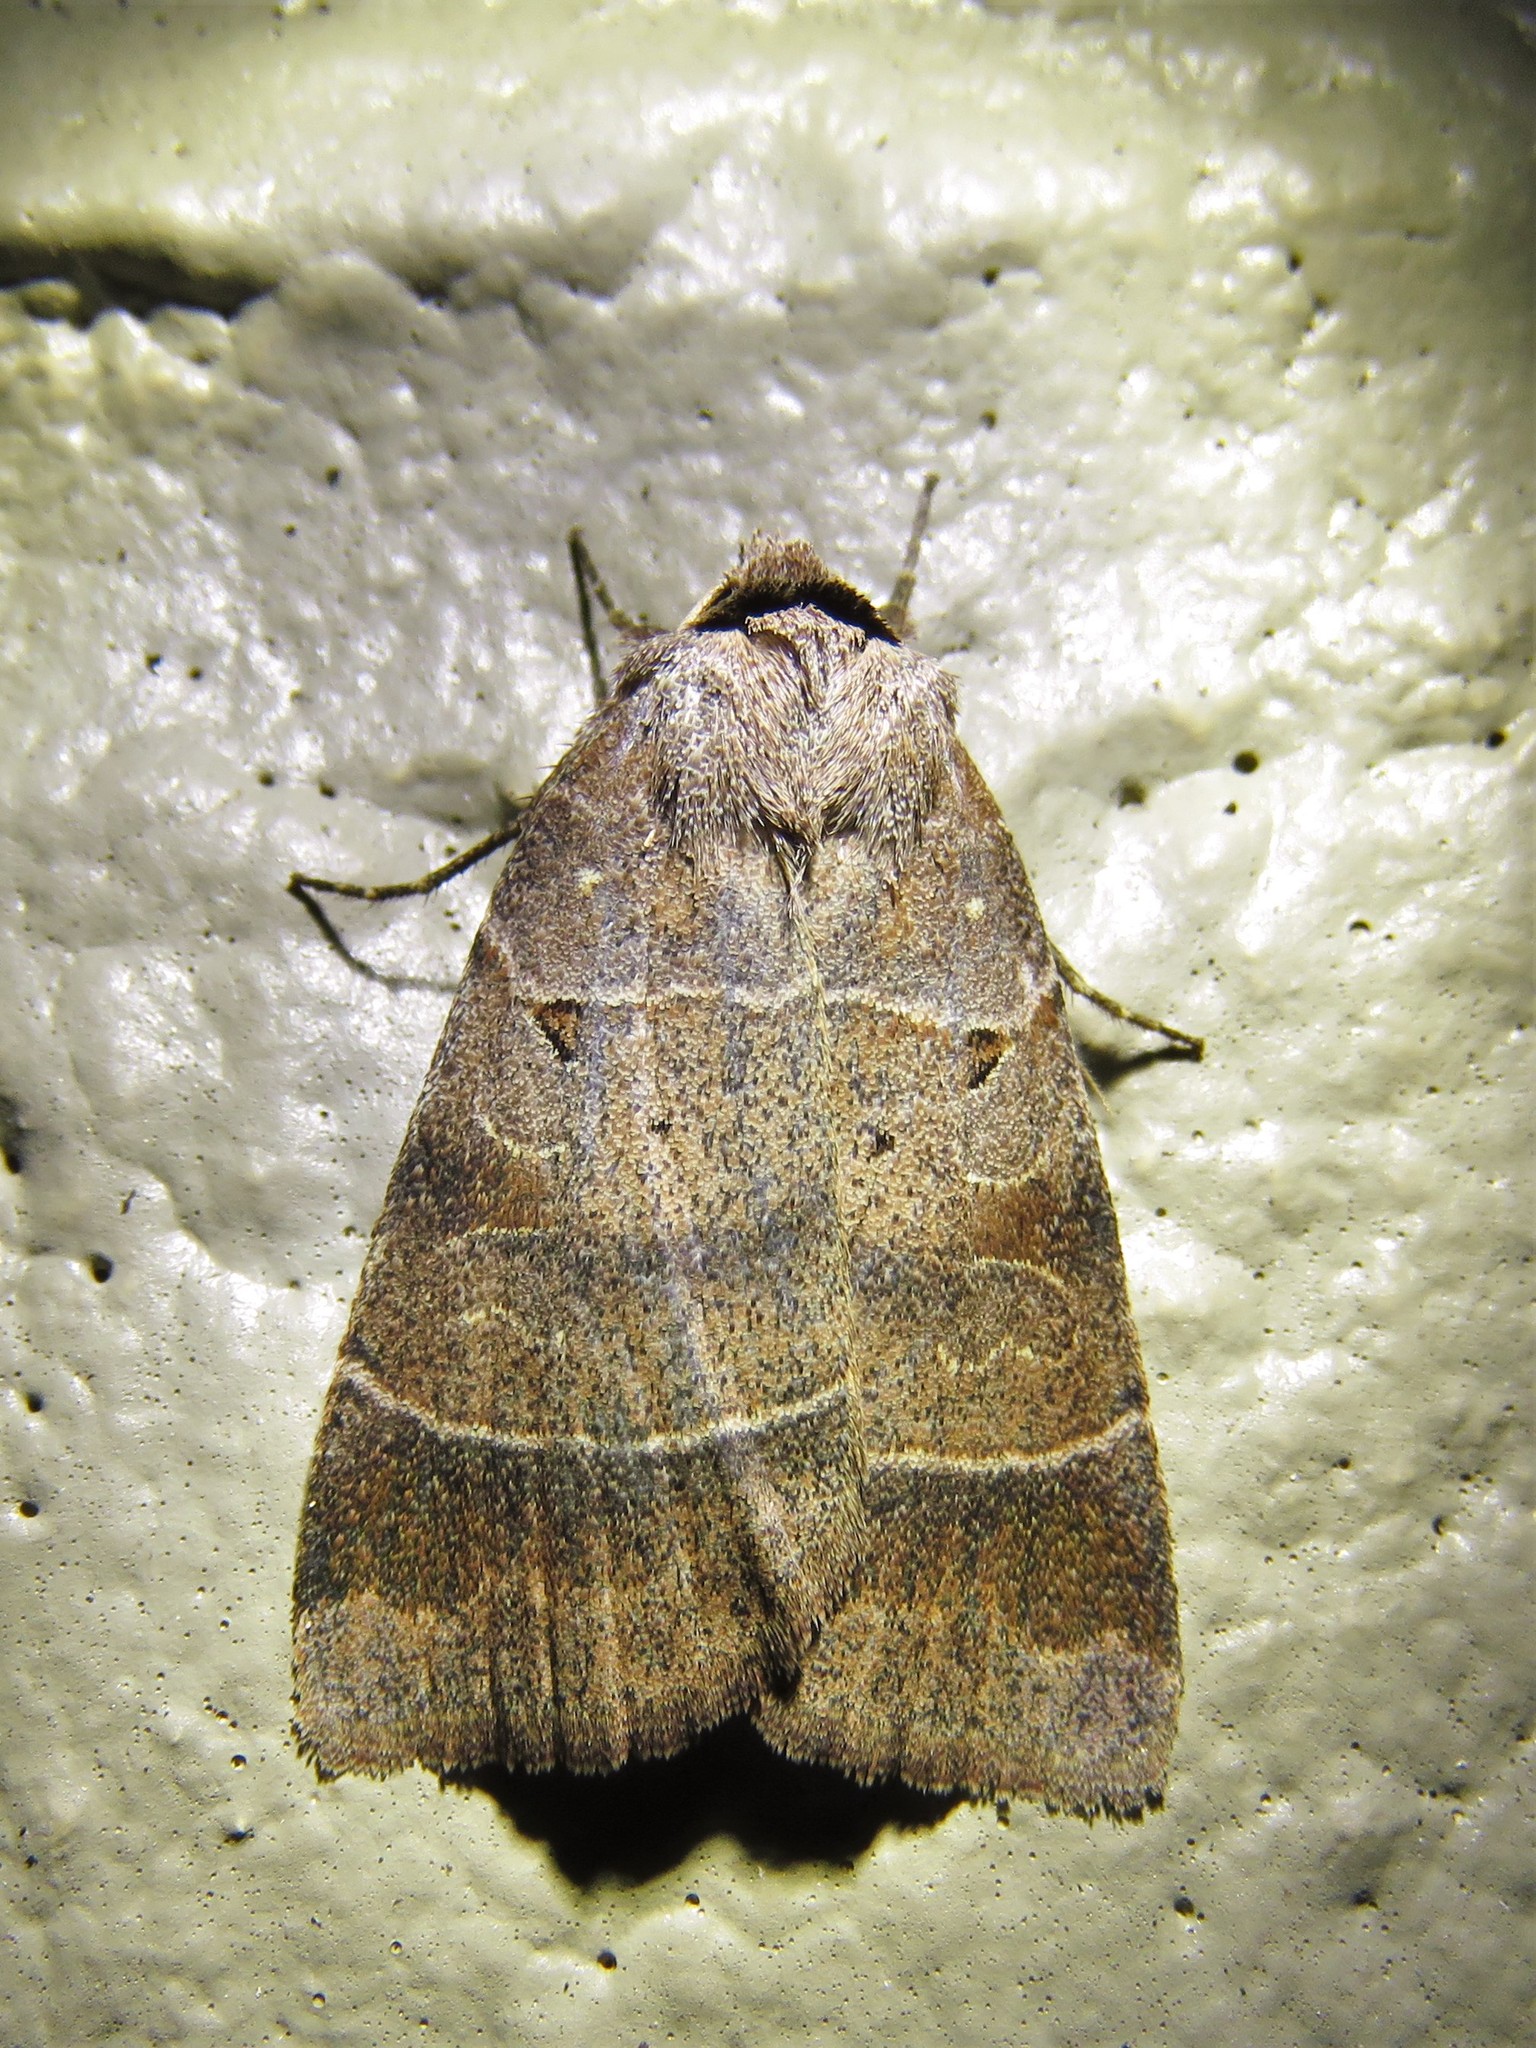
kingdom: Animalia
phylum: Arthropoda
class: Insecta
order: Lepidoptera
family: Noctuidae
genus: Agnorisma
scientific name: Agnorisma badinodis
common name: Pale-banded dart
